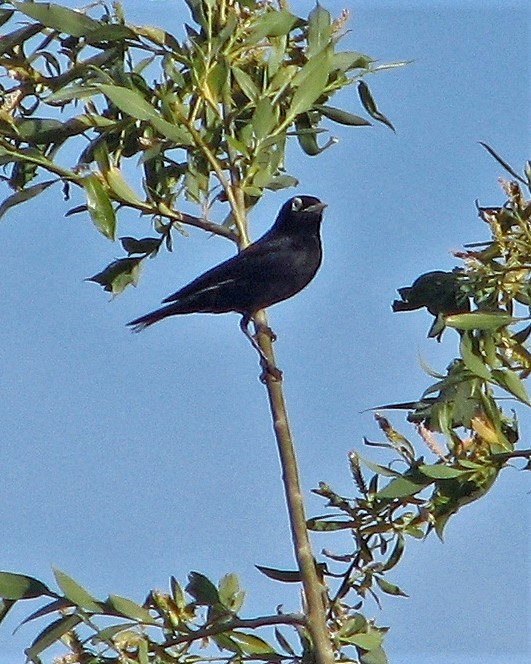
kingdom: Animalia
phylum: Chordata
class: Aves
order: Passeriformes
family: Tyrannidae
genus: Hymenops
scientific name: Hymenops perspicillatus
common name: Spectacled tyrant
